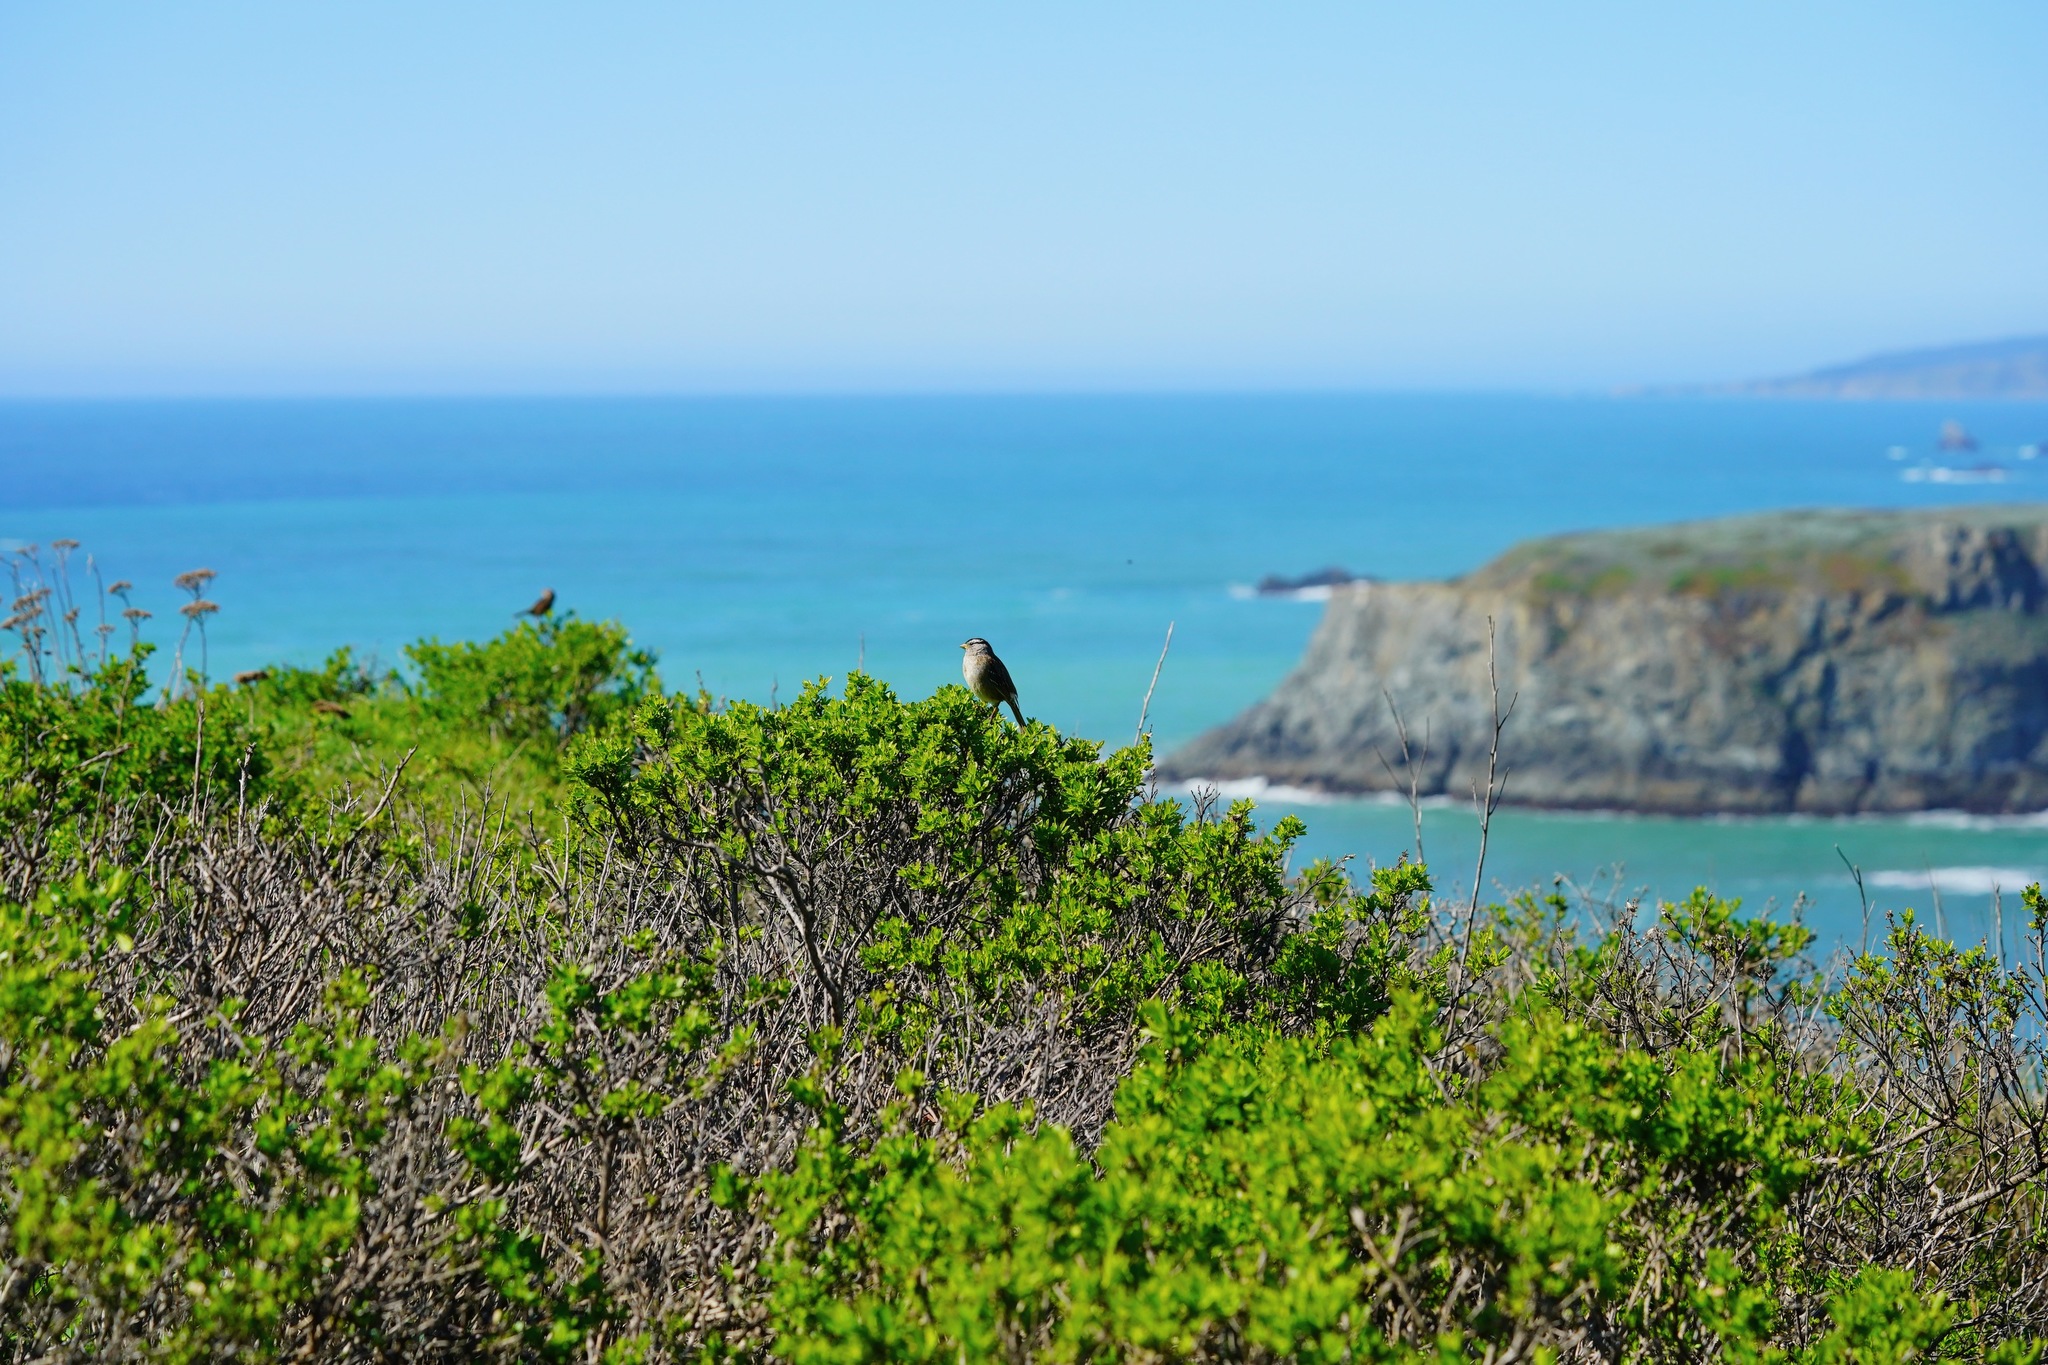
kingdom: Animalia
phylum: Chordata
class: Aves
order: Passeriformes
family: Passerellidae
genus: Zonotrichia
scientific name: Zonotrichia leucophrys
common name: White-crowned sparrow
